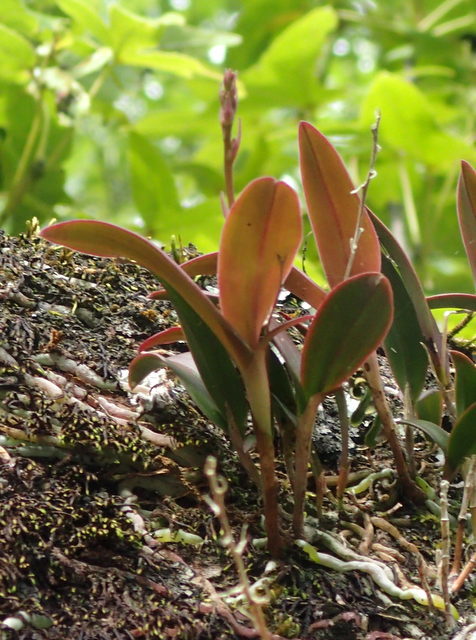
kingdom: Plantae
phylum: Tracheophyta
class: Liliopsida
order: Asparagales
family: Orchidaceae
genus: Epidendrum
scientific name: Epidendrum conopseum
